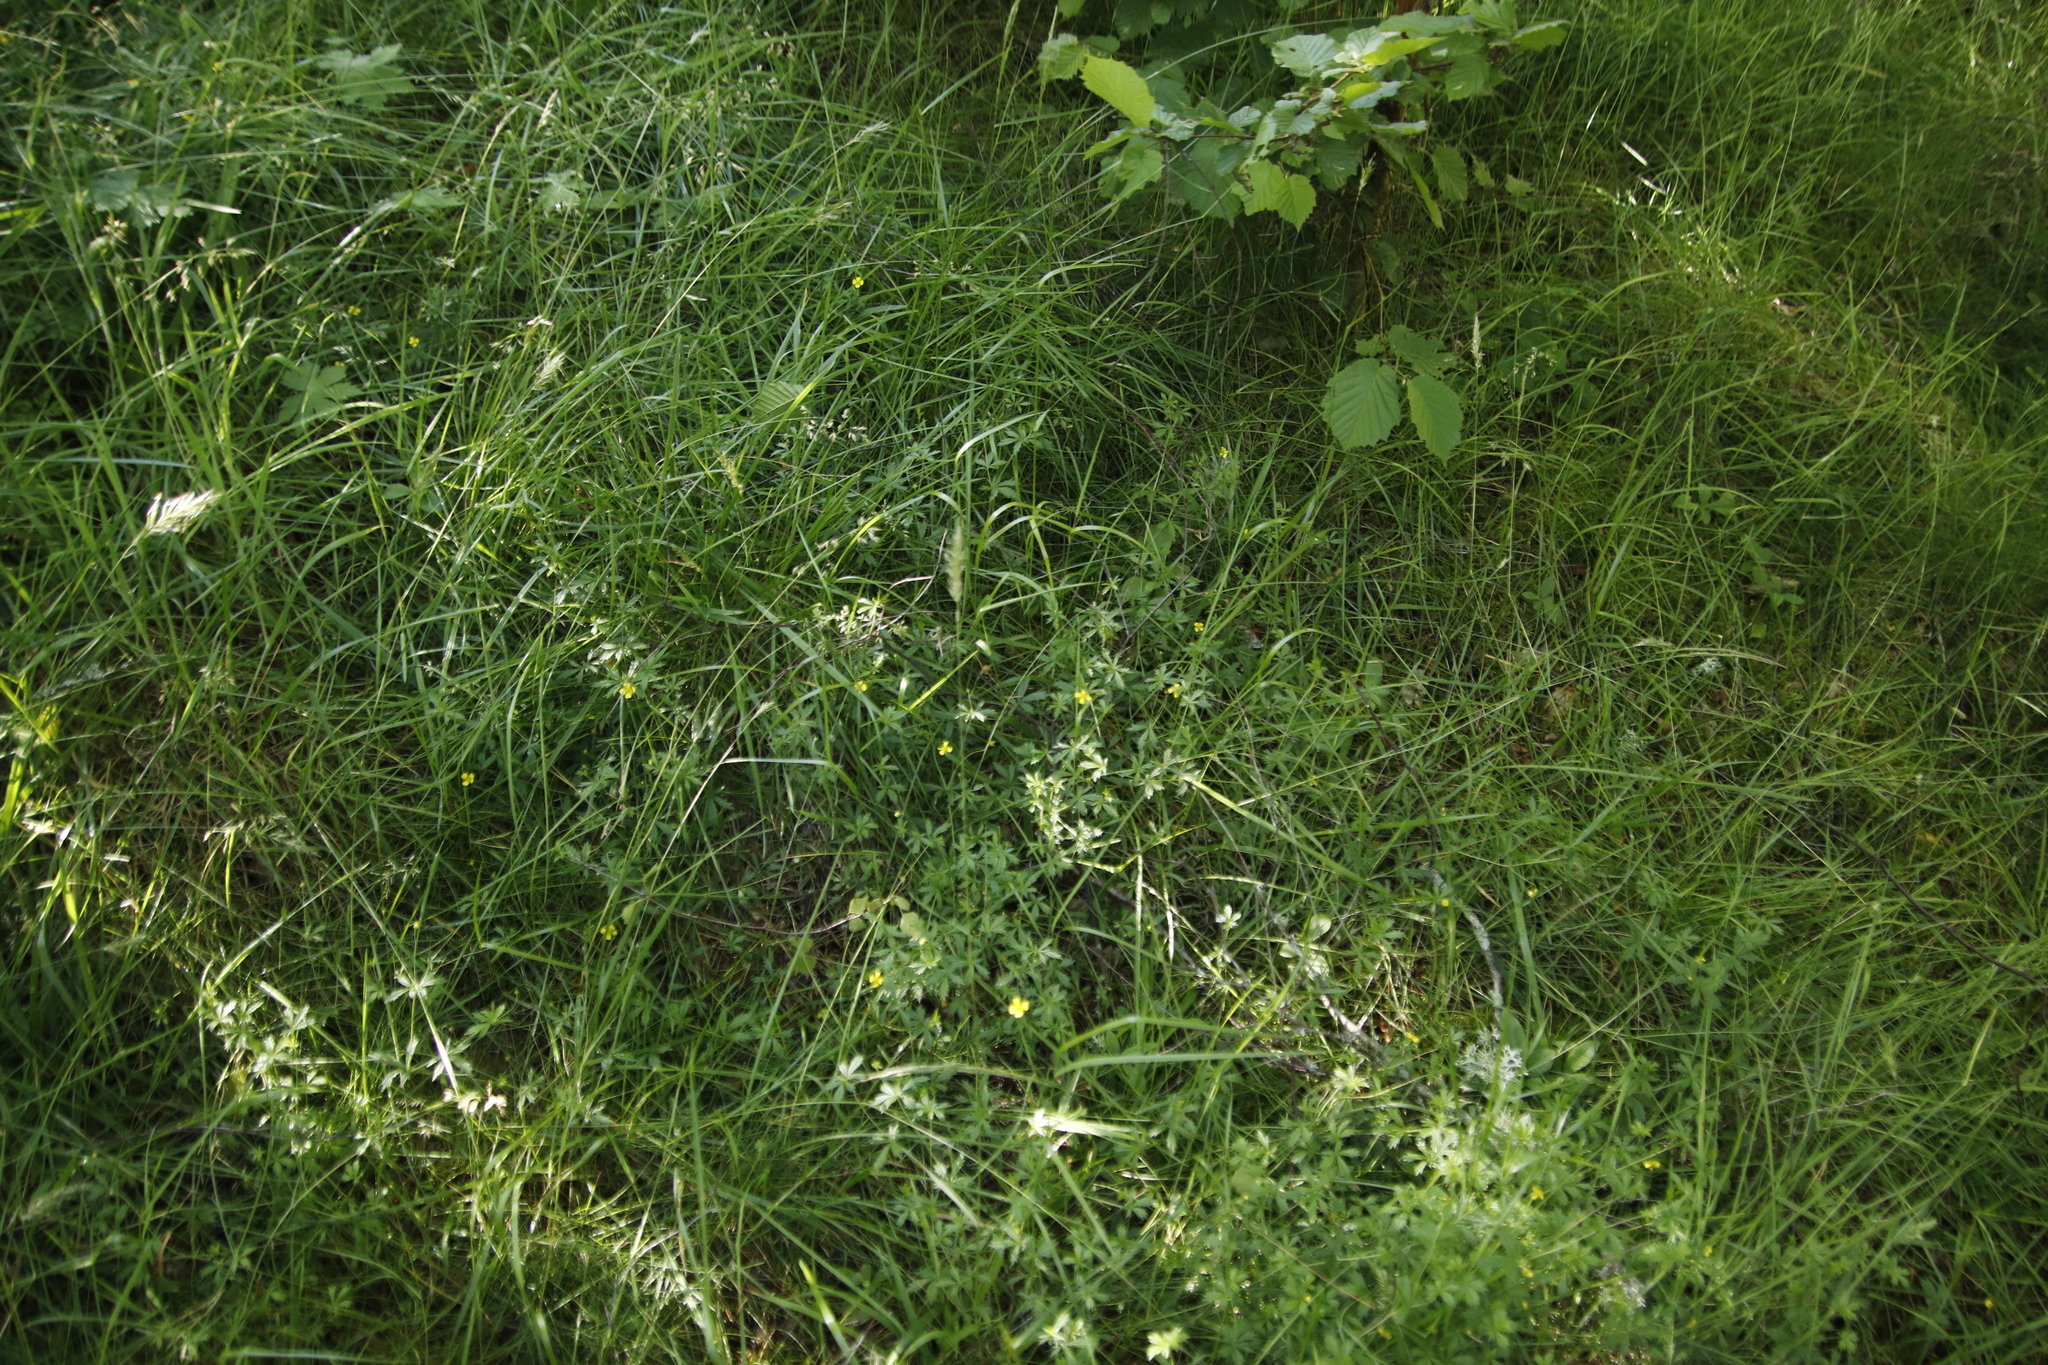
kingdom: Plantae
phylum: Tracheophyta
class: Magnoliopsida
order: Rosales
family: Rosaceae
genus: Potentilla
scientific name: Potentilla erecta
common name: Tormentil
